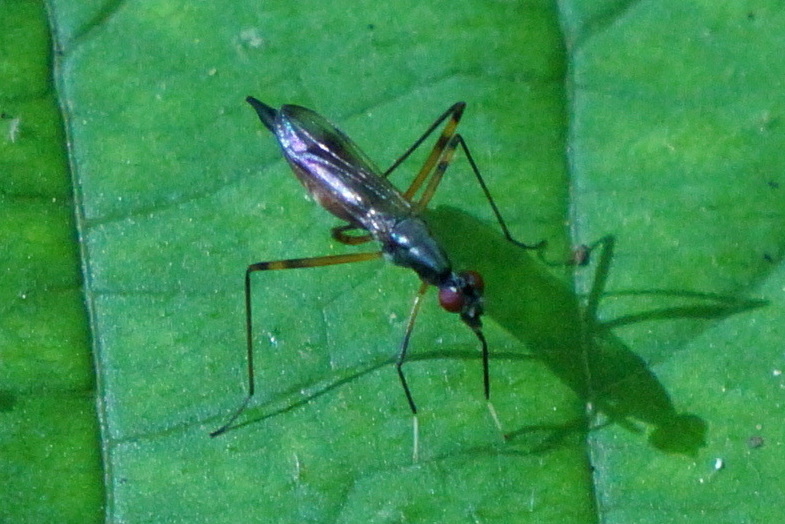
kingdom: Animalia
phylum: Arthropoda
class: Insecta
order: Diptera
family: Micropezidae
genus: Rainieria
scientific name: Rainieria antennaepes
